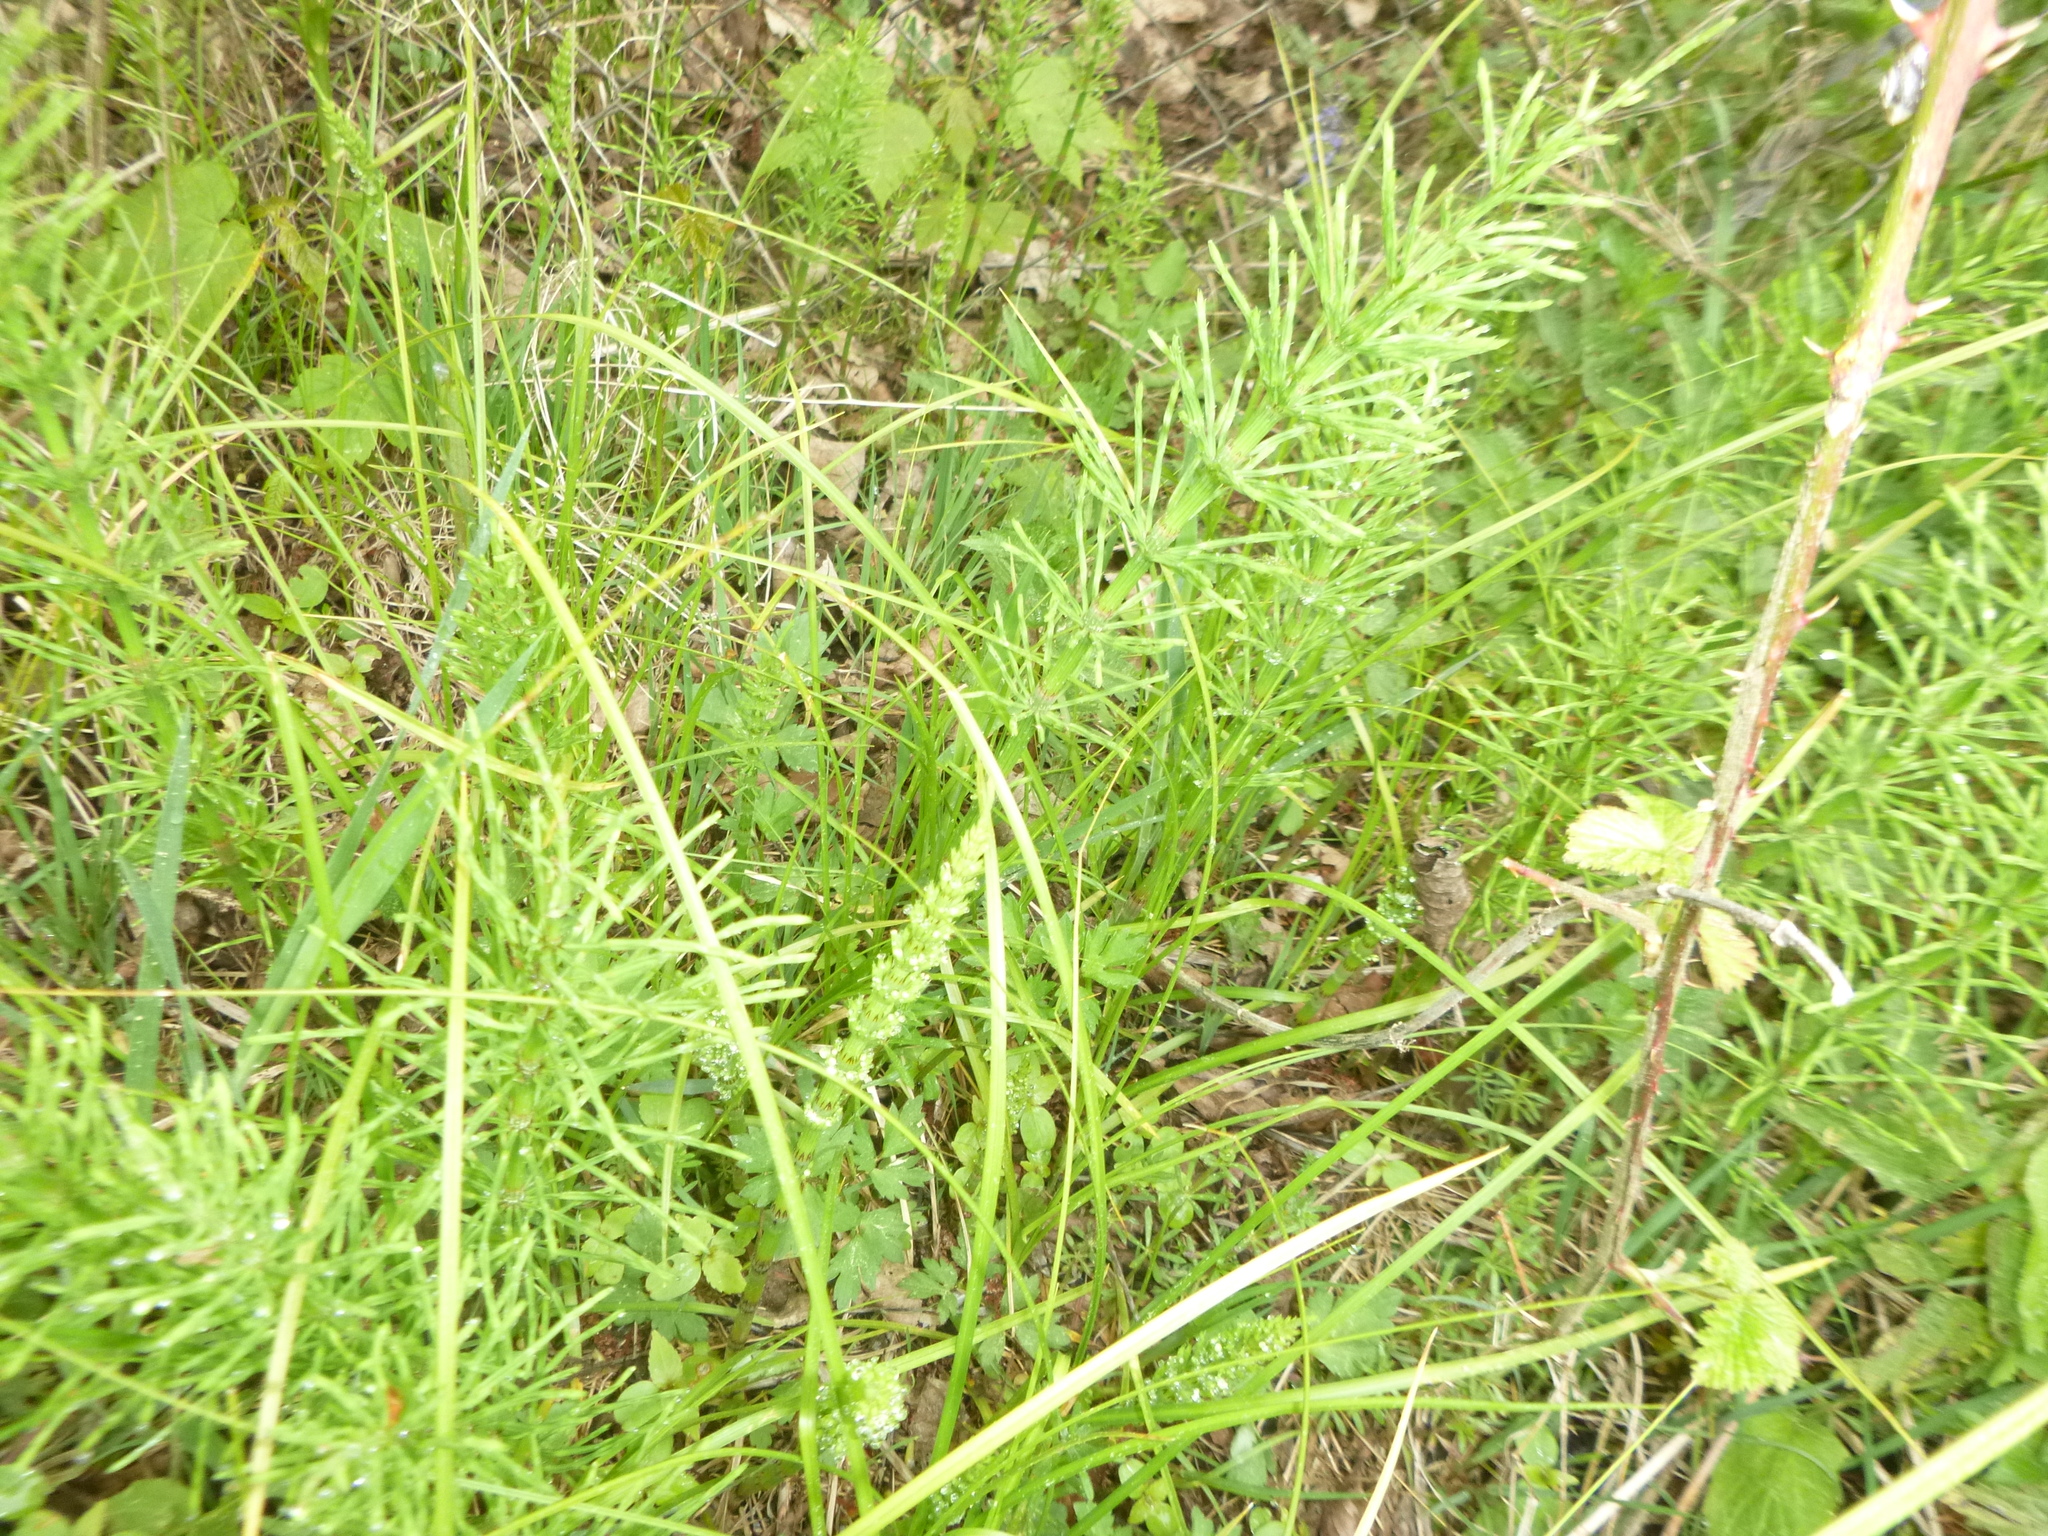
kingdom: Plantae
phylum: Tracheophyta
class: Polypodiopsida
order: Equisetales
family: Equisetaceae
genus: Equisetum
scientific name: Equisetum arvense
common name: Field horsetail
